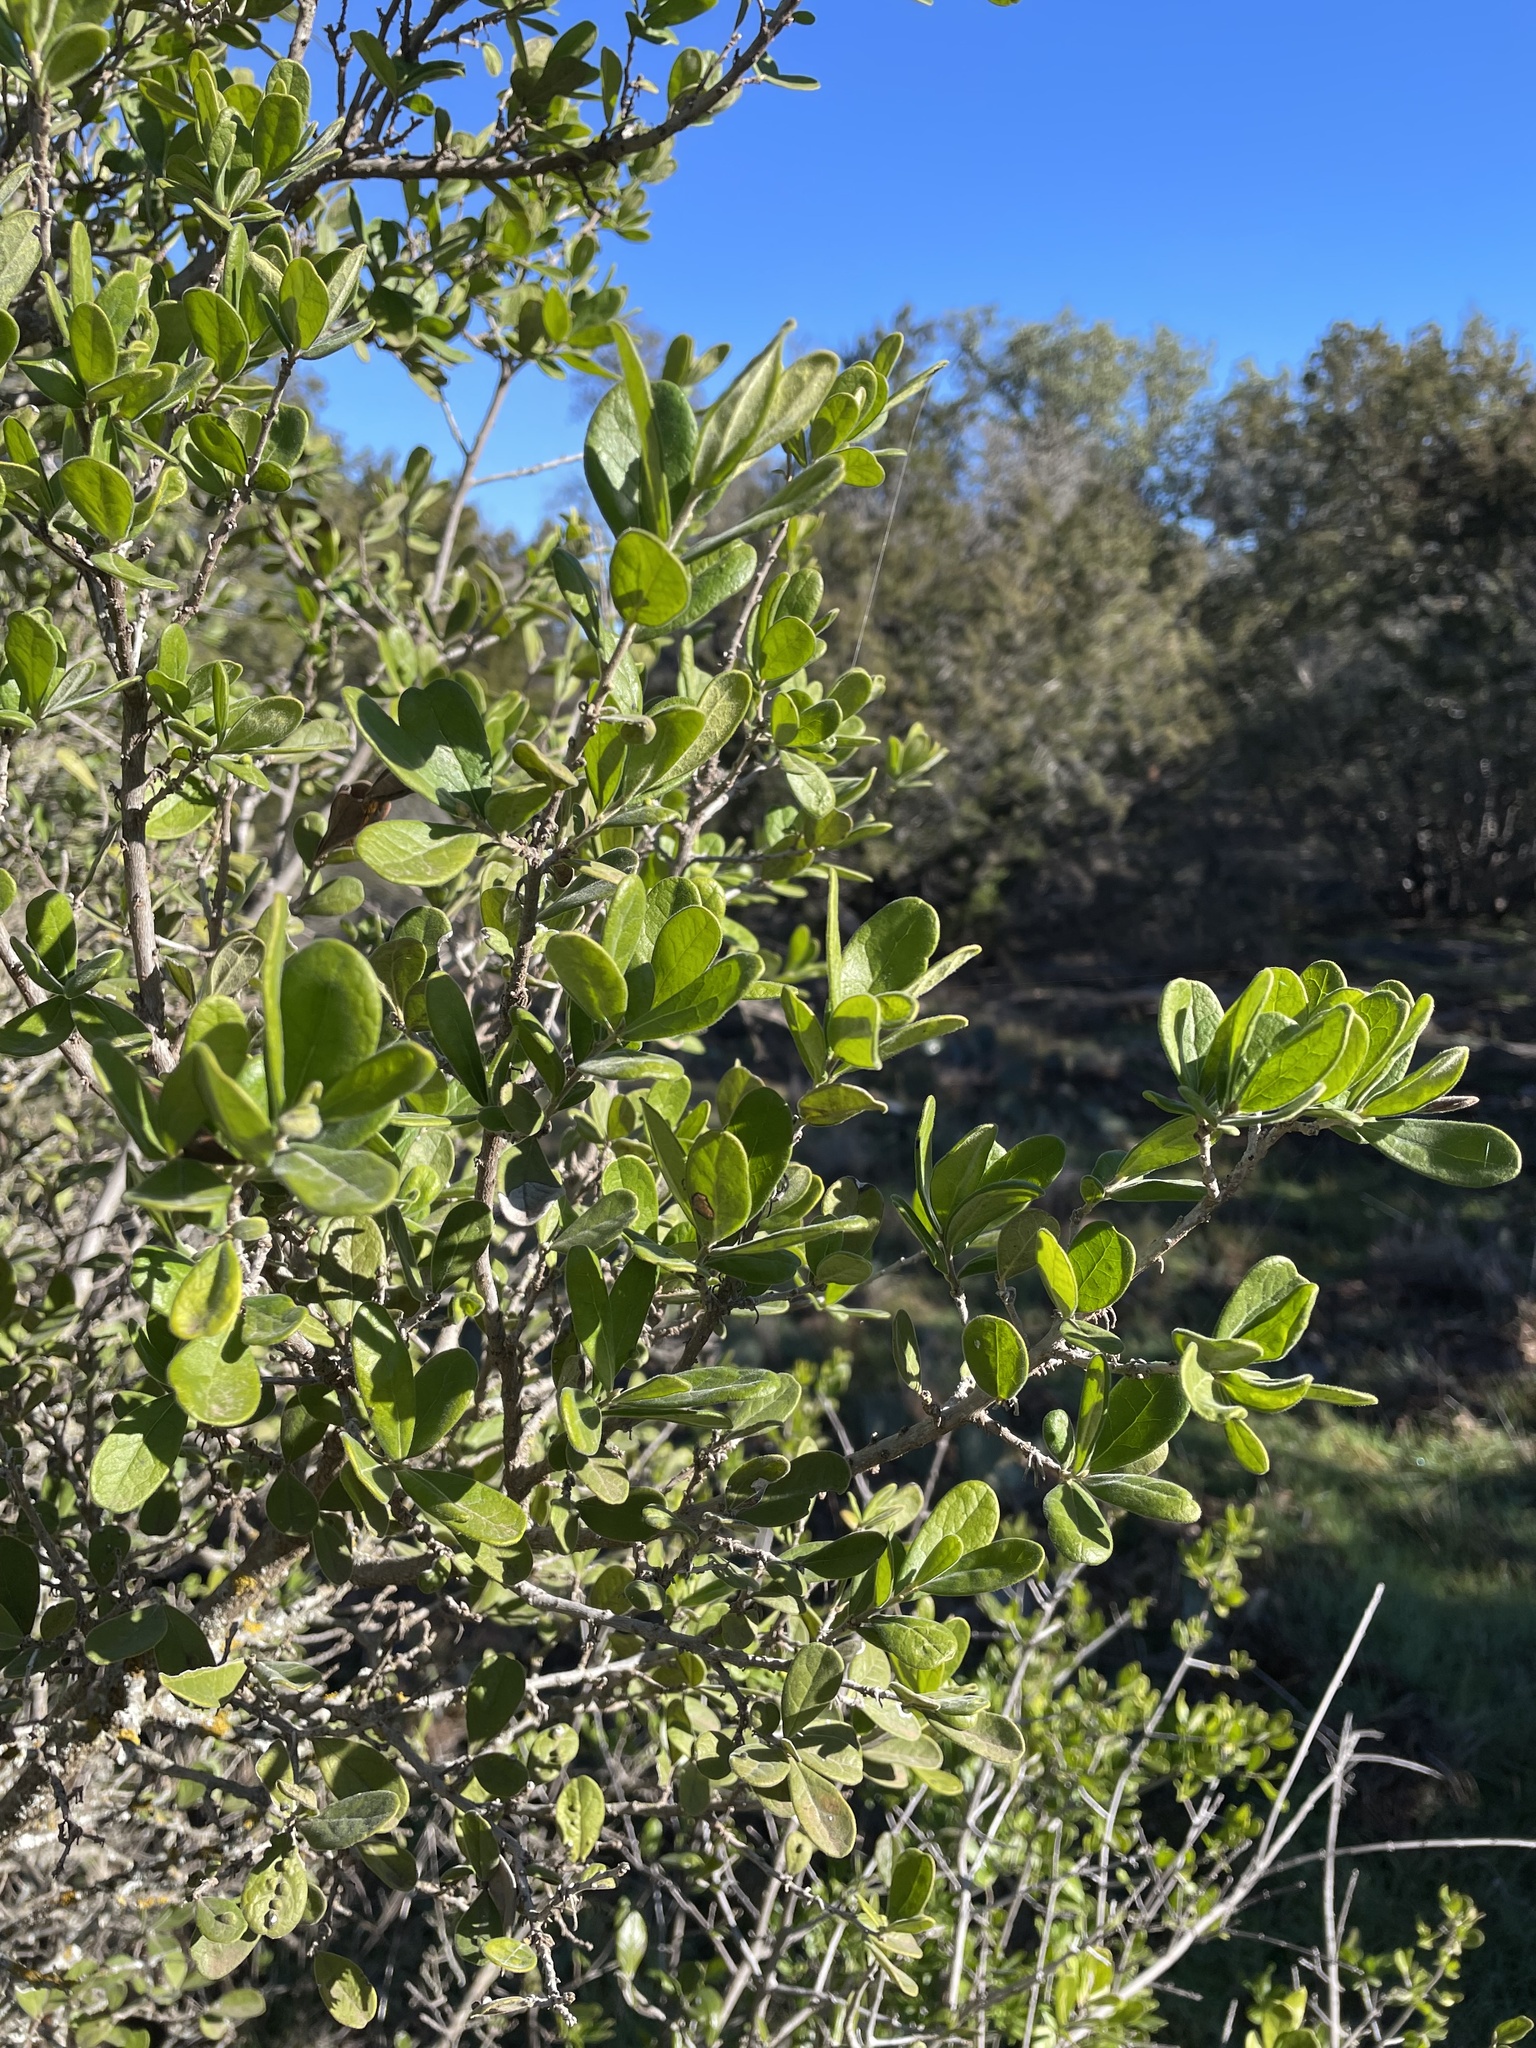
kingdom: Plantae
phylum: Tracheophyta
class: Magnoliopsida
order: Ericales
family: Ebenaceae
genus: Diospyros
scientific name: Diospyros texana
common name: Texas persimmon
